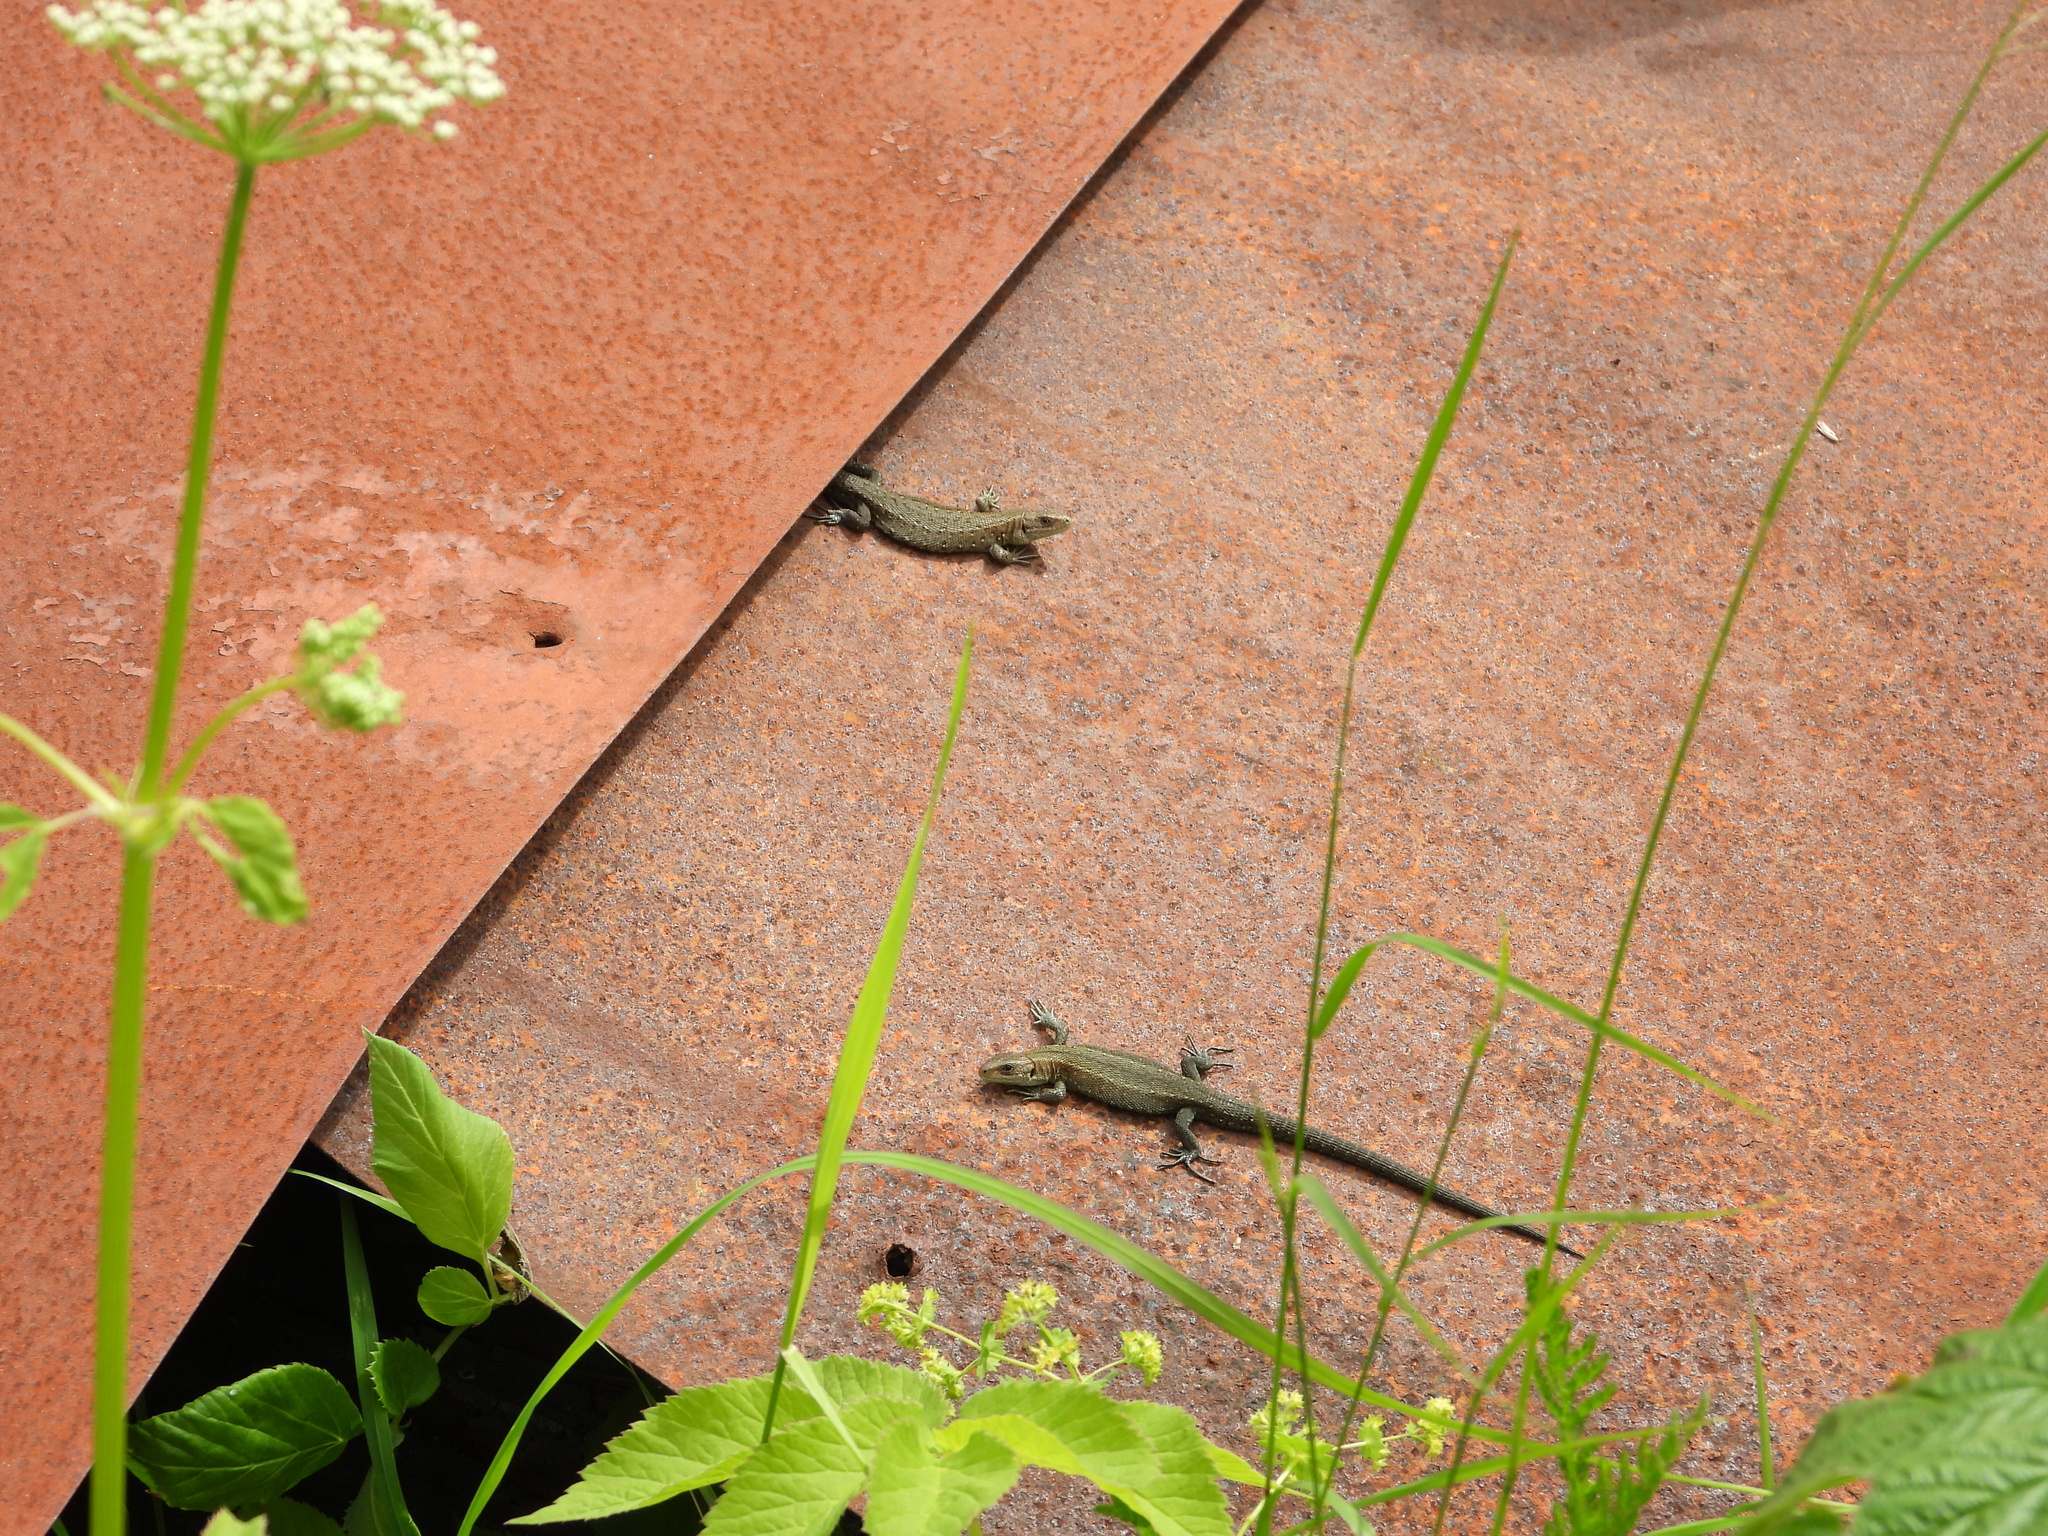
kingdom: Animalia
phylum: Chordata
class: Squamata
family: Lacertidae
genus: Zootoca
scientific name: Zootoca vivipara
